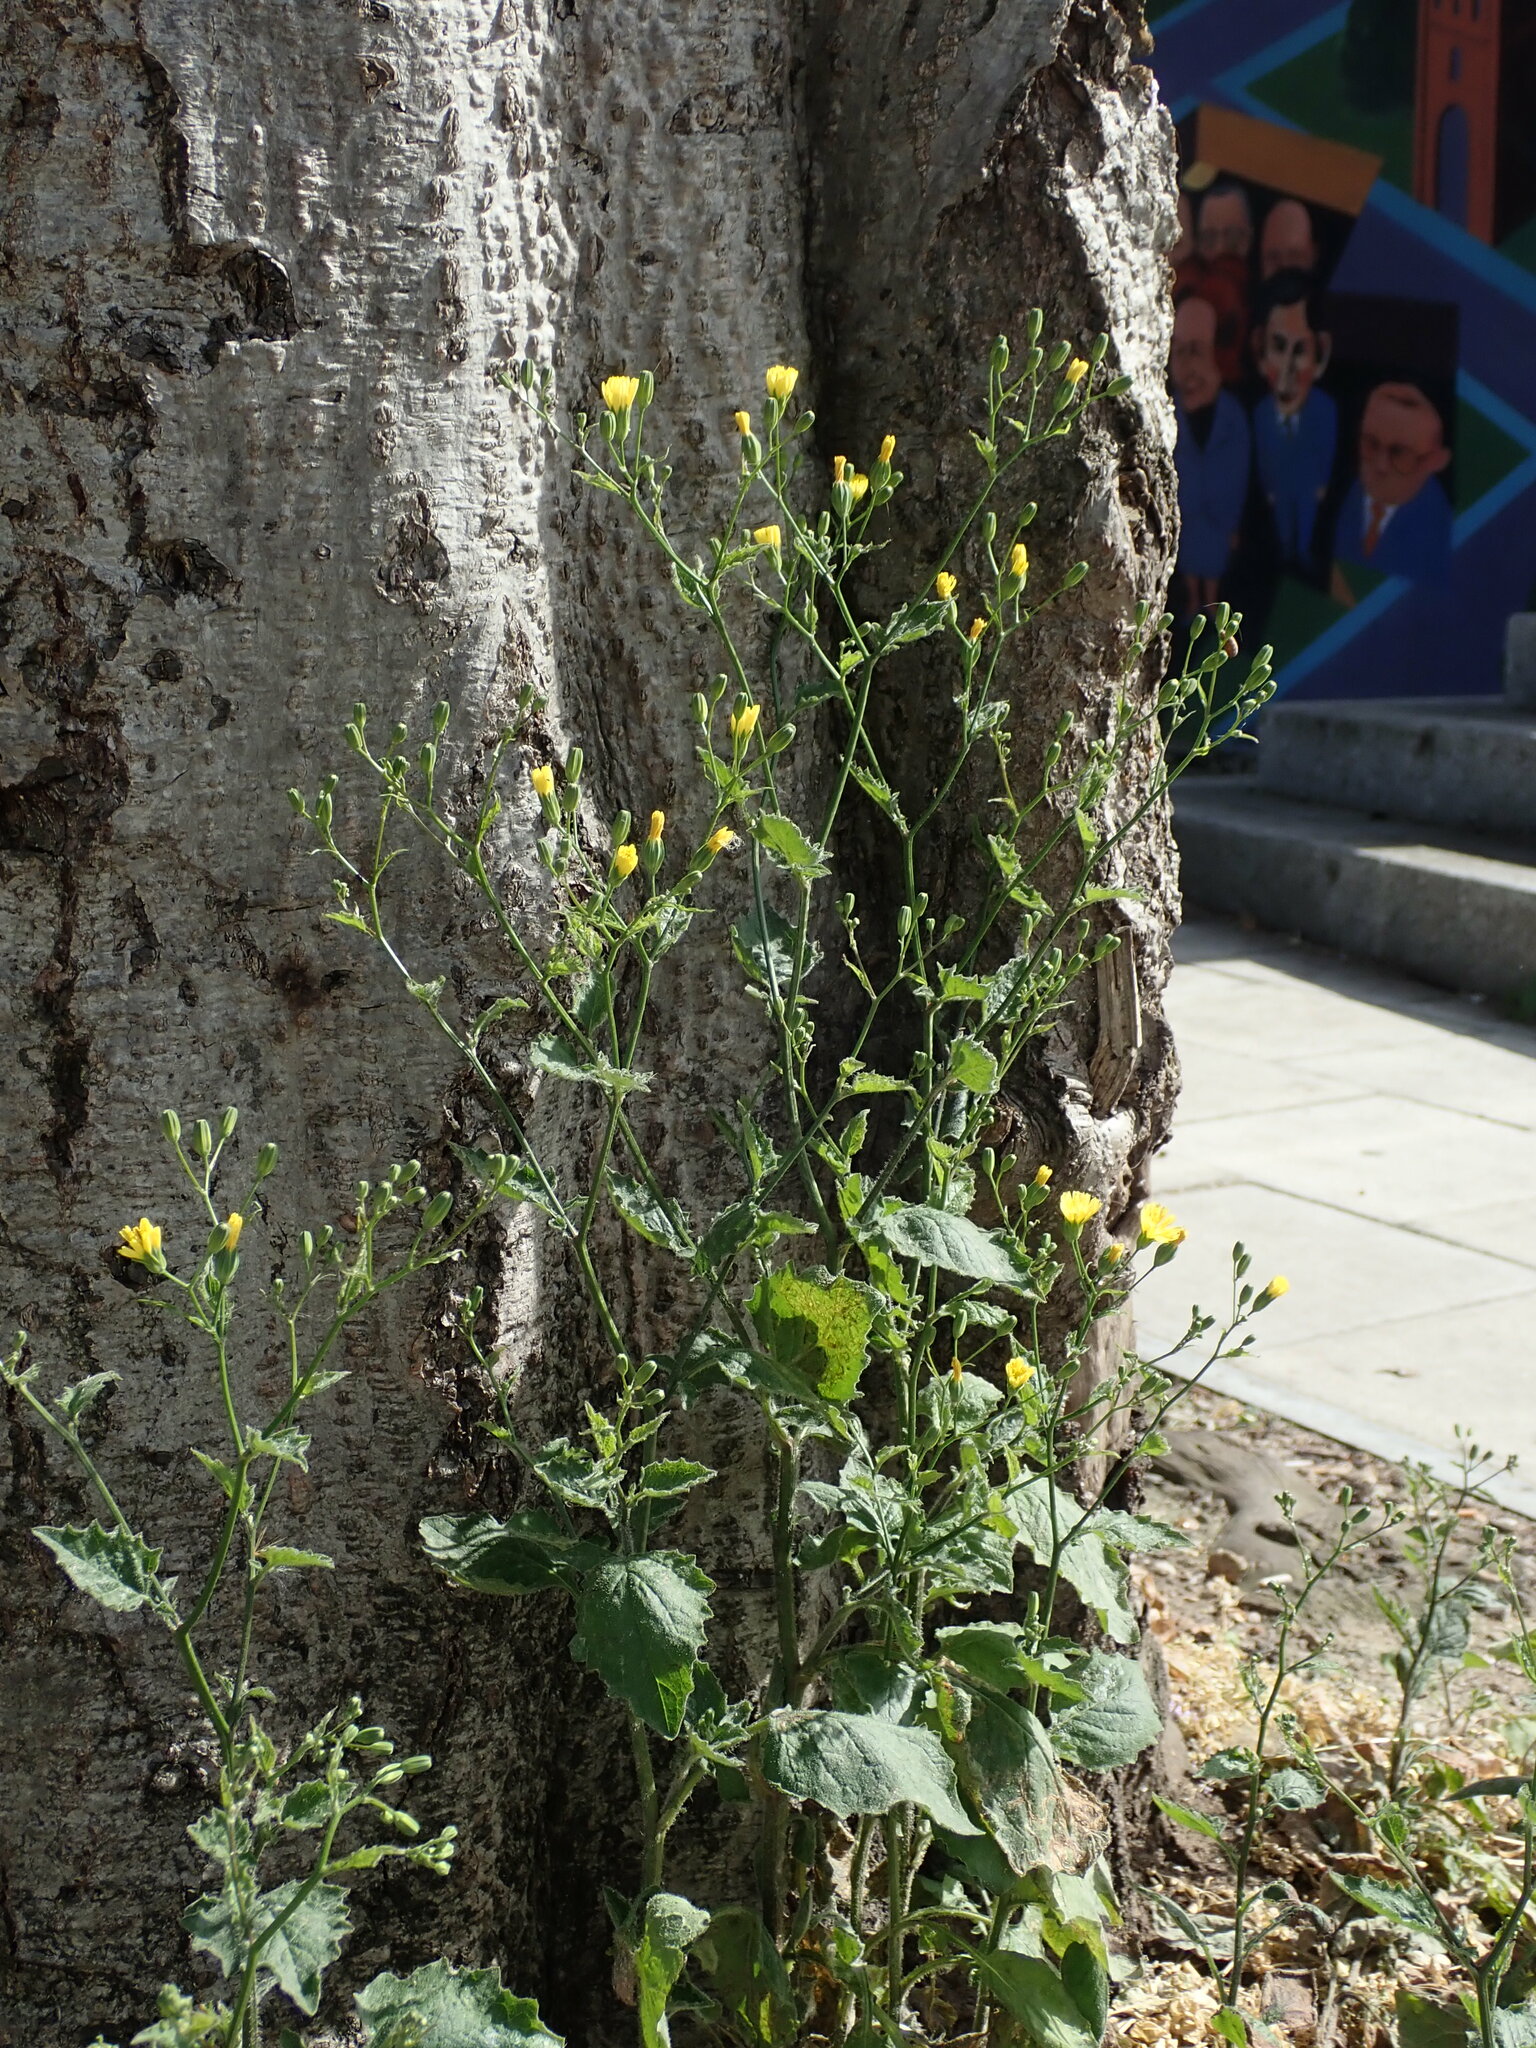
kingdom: Plantae
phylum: Tracheophyta
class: Magnoliopsida
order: Asterales
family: Asteraceae
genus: Lapsana
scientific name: Lapsana communis
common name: Nipplewort
